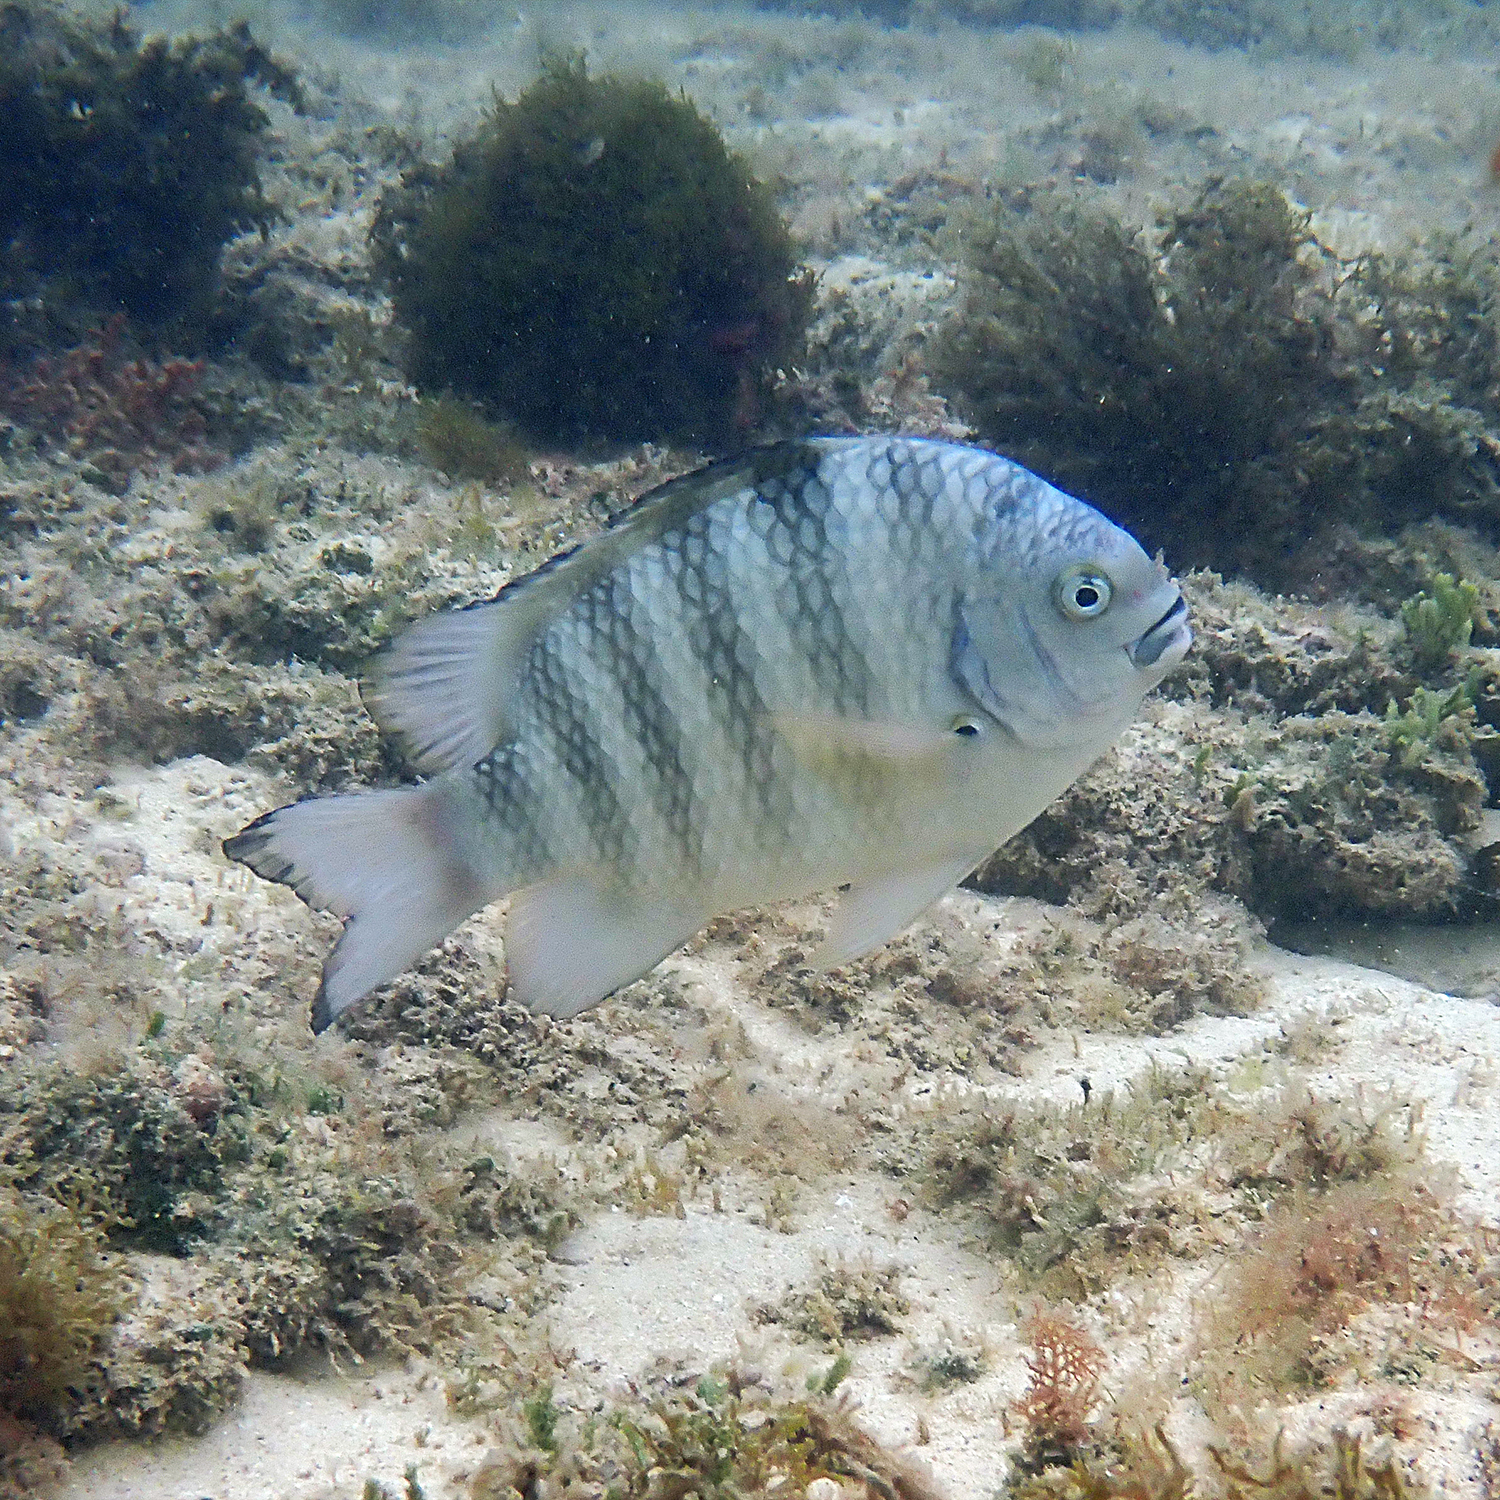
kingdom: Animalia
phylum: Chordata
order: Perciformes
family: Pomacentridae
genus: Abudefduf
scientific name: Abudefduf septemfasciatus
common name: Banded sergeant
